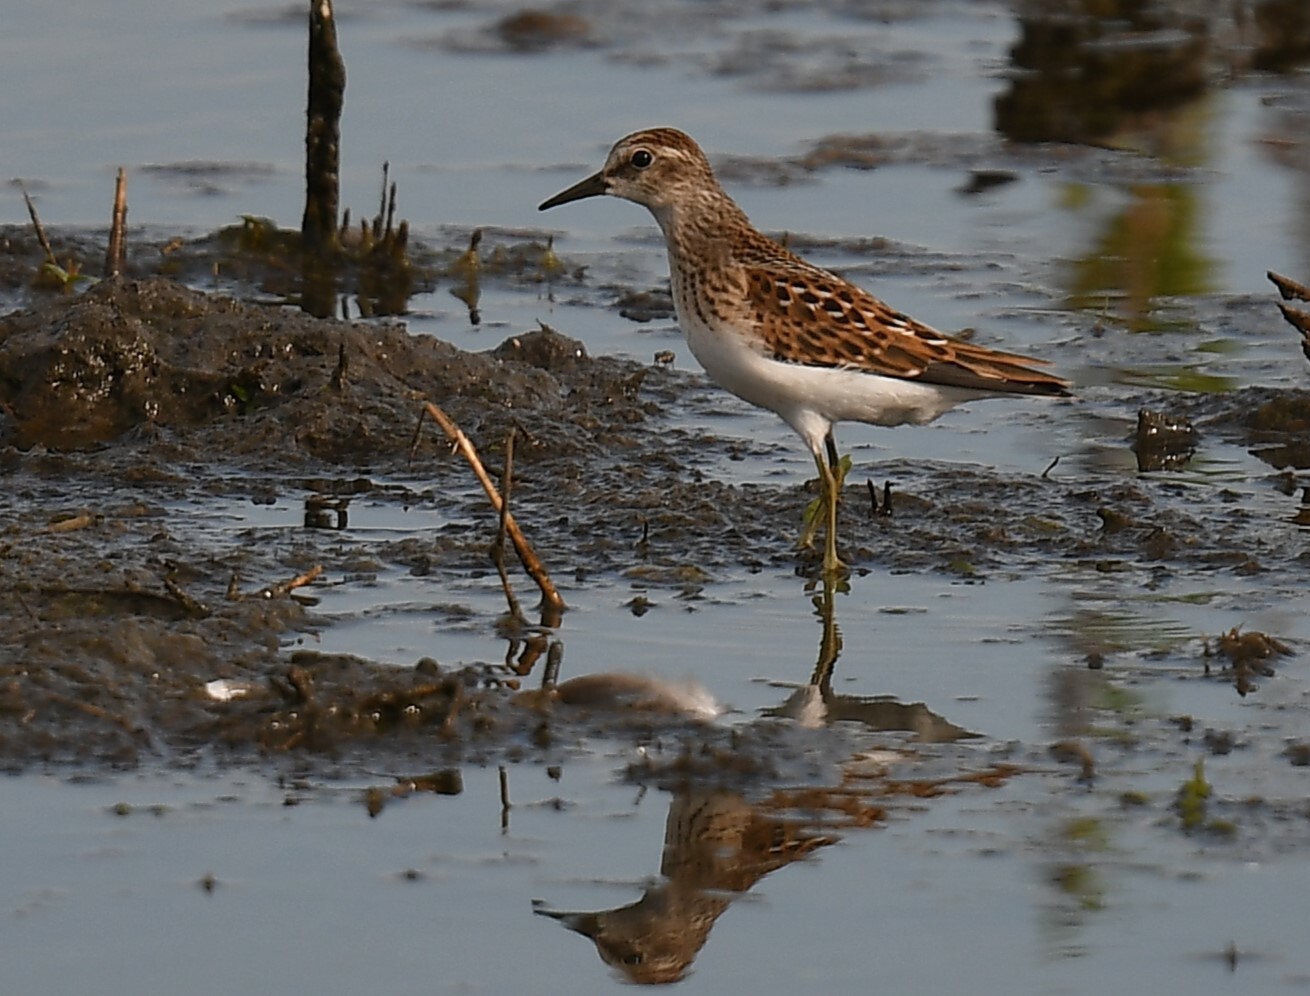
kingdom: Animalia
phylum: Chordata
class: Aves
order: Charadriiformes
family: Scolopacidae
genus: Calidris
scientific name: Calidris minutilla
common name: Least sandpiper
